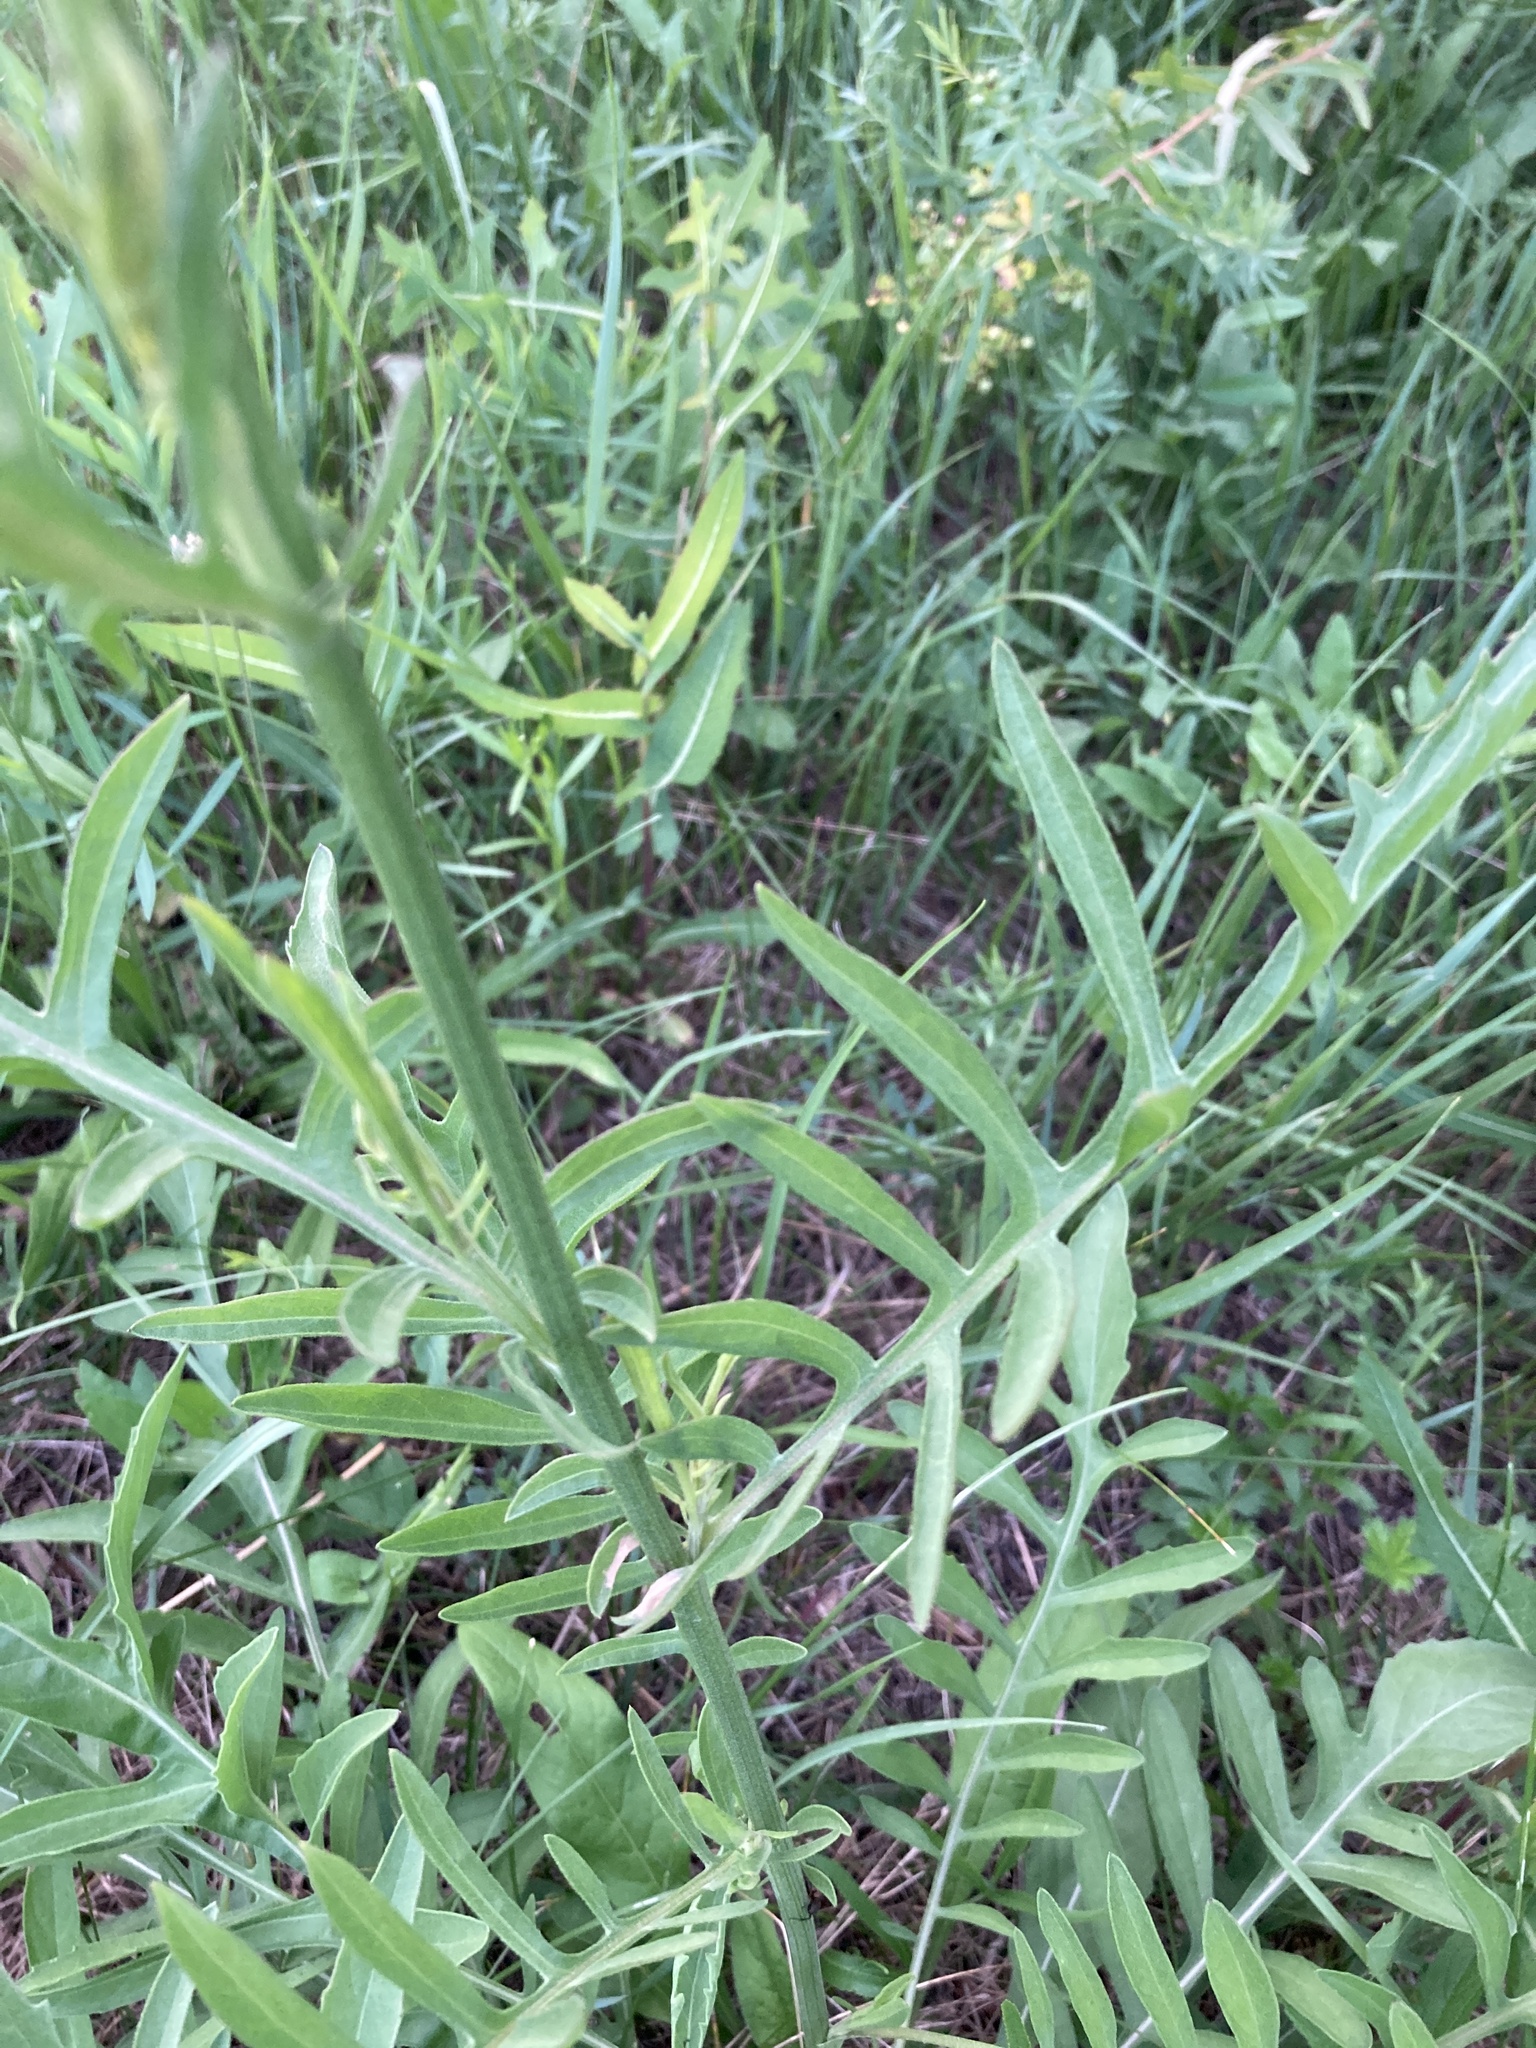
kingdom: Plantae
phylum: Tracheophyta
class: Magnoliopsida
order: Asterales
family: Asteraceae
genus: Centaurea
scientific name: Centaurea scabiosa
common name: Greater knapweed
